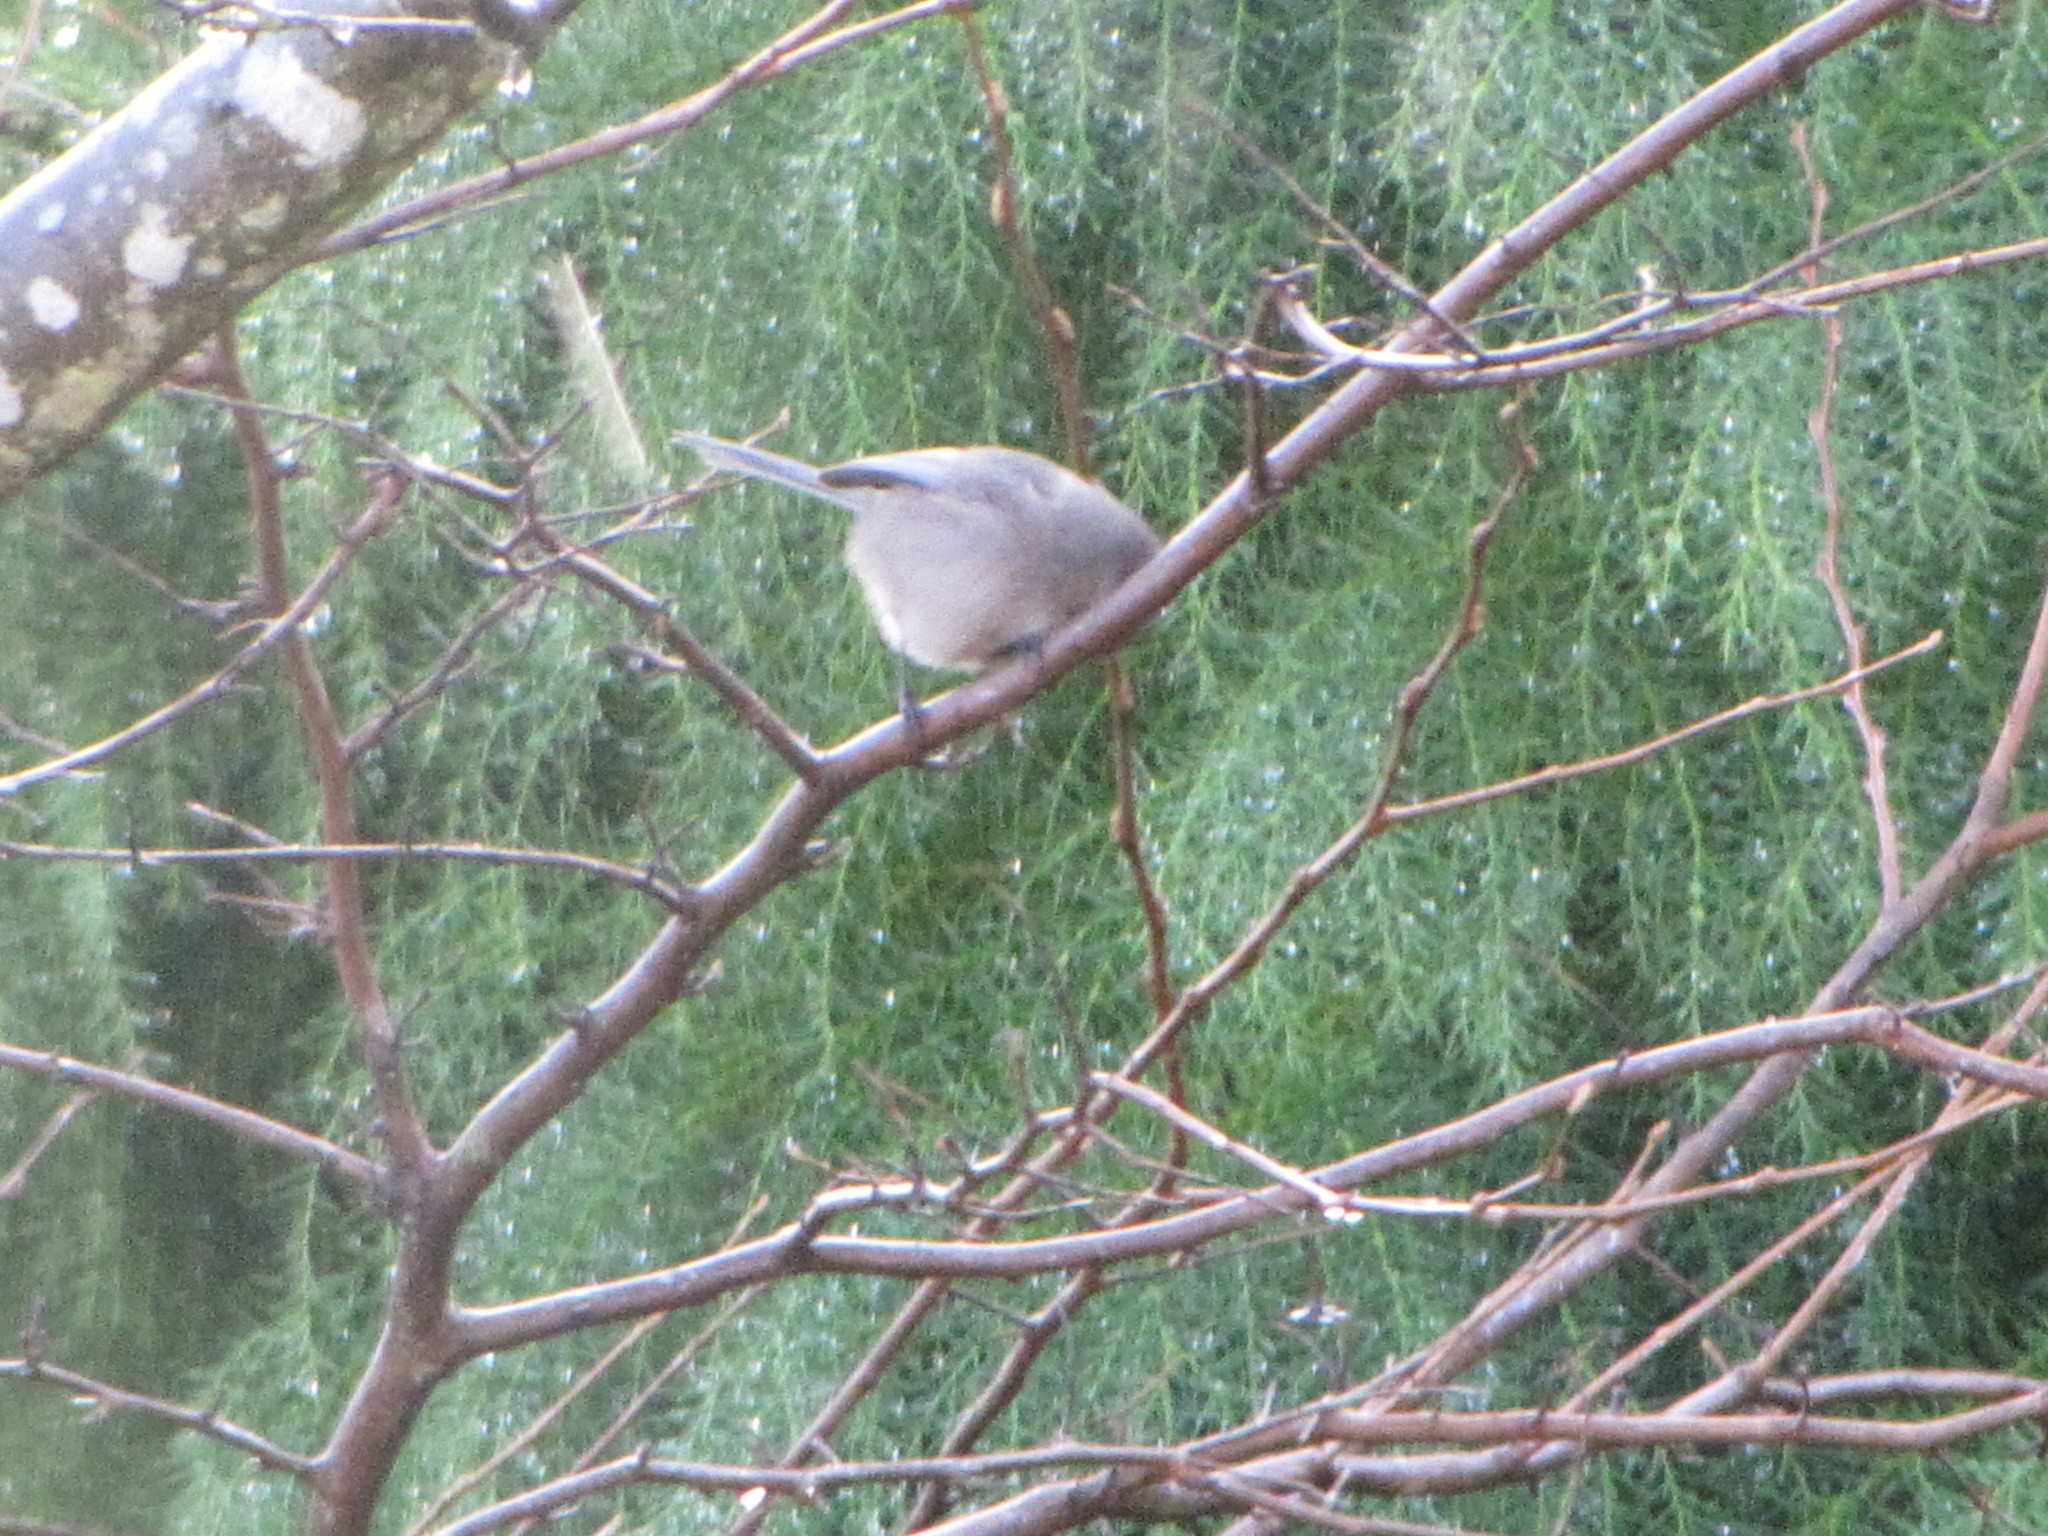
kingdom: Animalia
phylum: Chordata
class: Aves
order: Passeriformes
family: Aegithalidae
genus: Psaltriparus
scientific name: Psaltriparus minimus
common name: American bushtit
